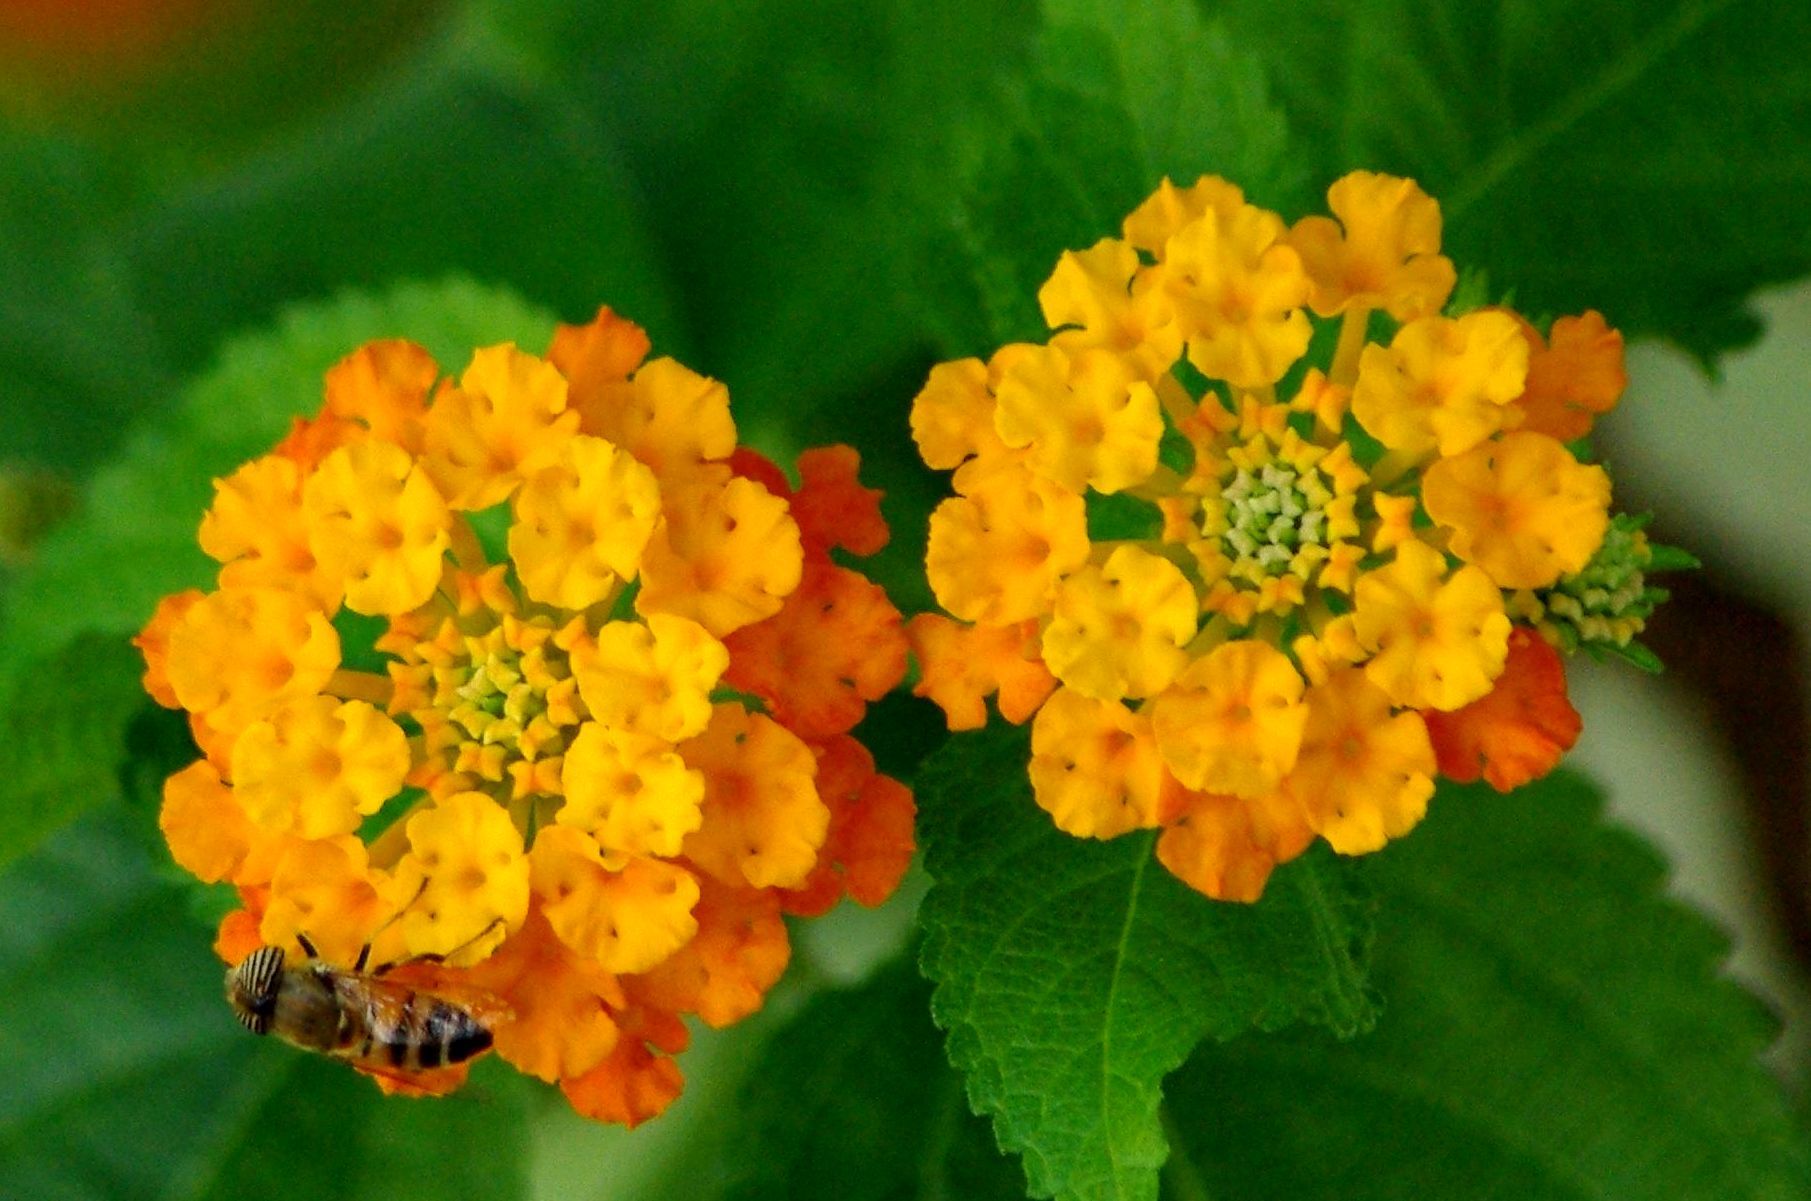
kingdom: Animalia
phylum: Arthropoda
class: Insecta
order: Diptera
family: Syrphidae
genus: Eristalinus
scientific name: Eristalinus taeniops
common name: Syrphid fly
